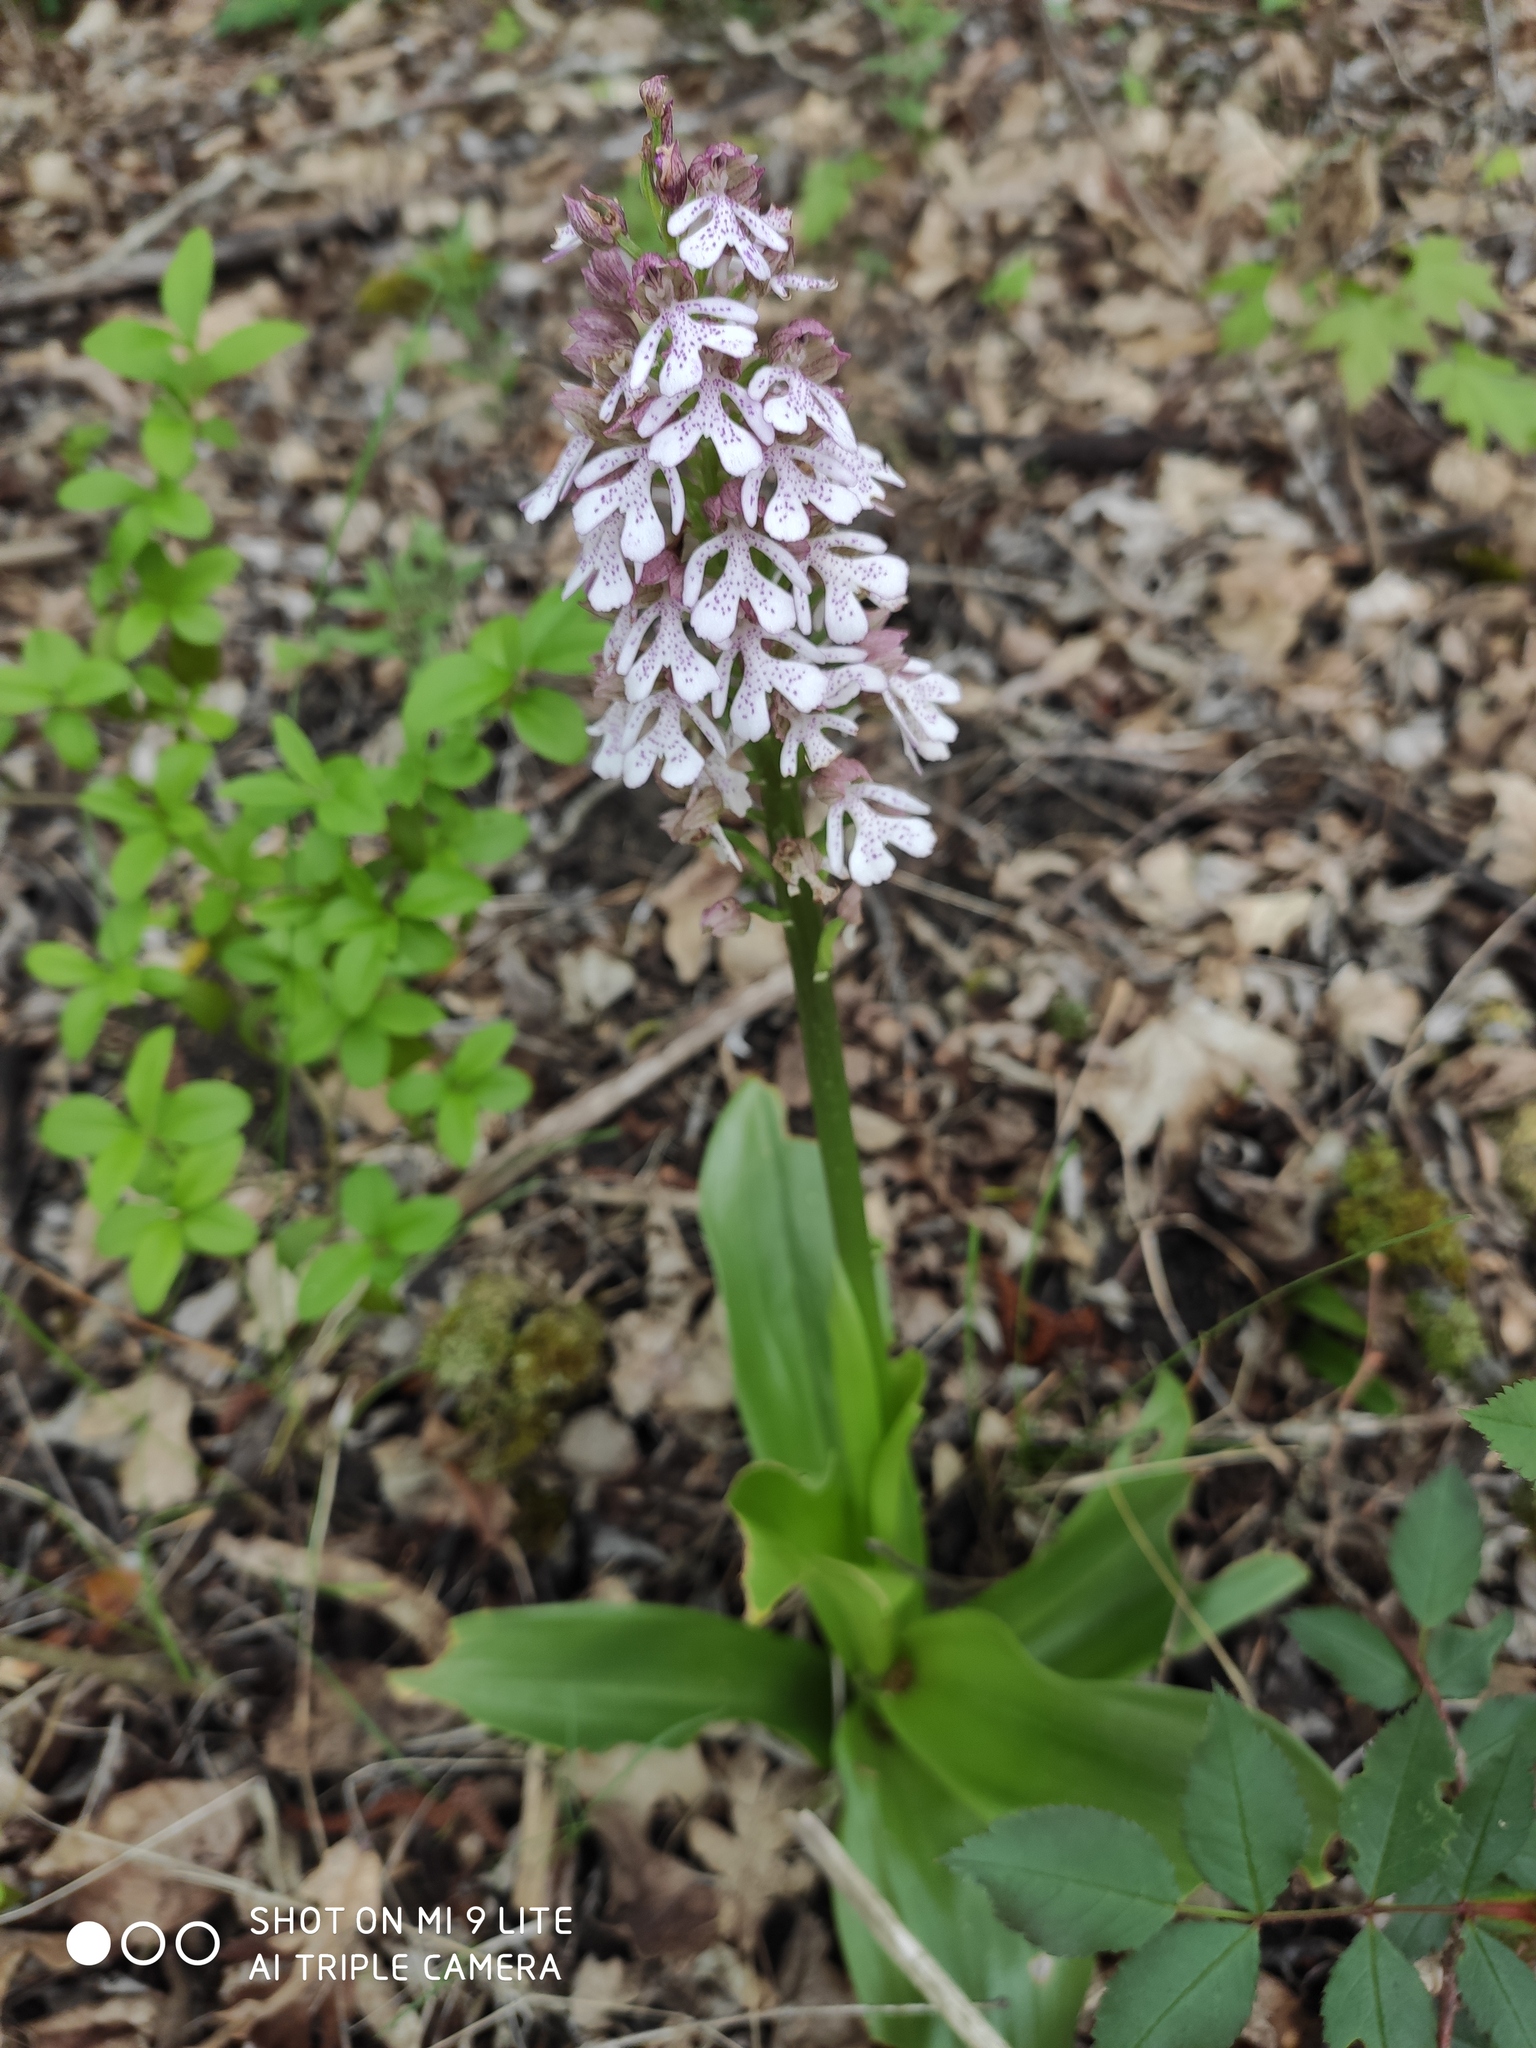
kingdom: Plantae
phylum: Tracheophyta
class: Liliopsida
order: Asparagales
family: Orchidaceae
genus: Orchis
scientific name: Orchis purpurea
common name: Lady orchid
